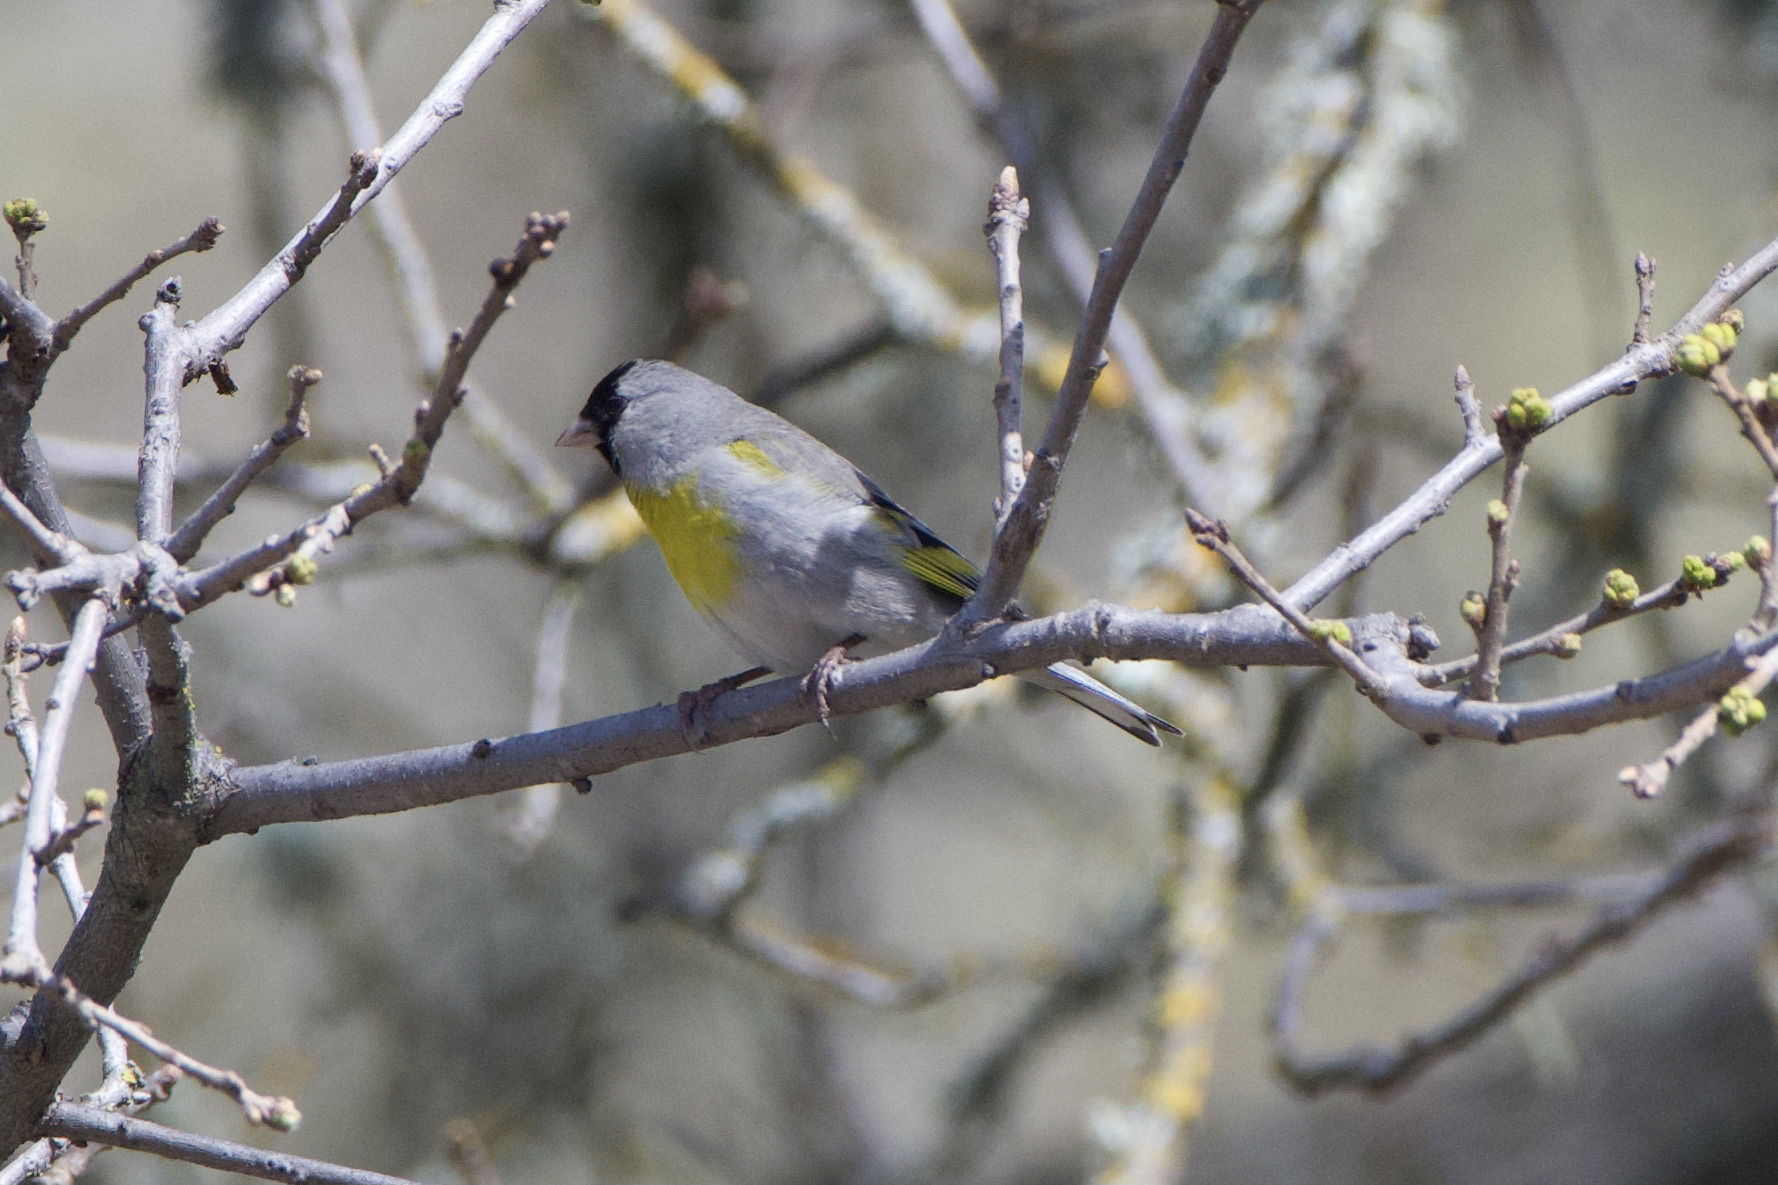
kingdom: Animalia
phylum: Chordata
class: Aves
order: Passeriformes
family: Fringillidae
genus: Spinus
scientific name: Spinus lawrencei
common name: Lawrence's goldfinch
